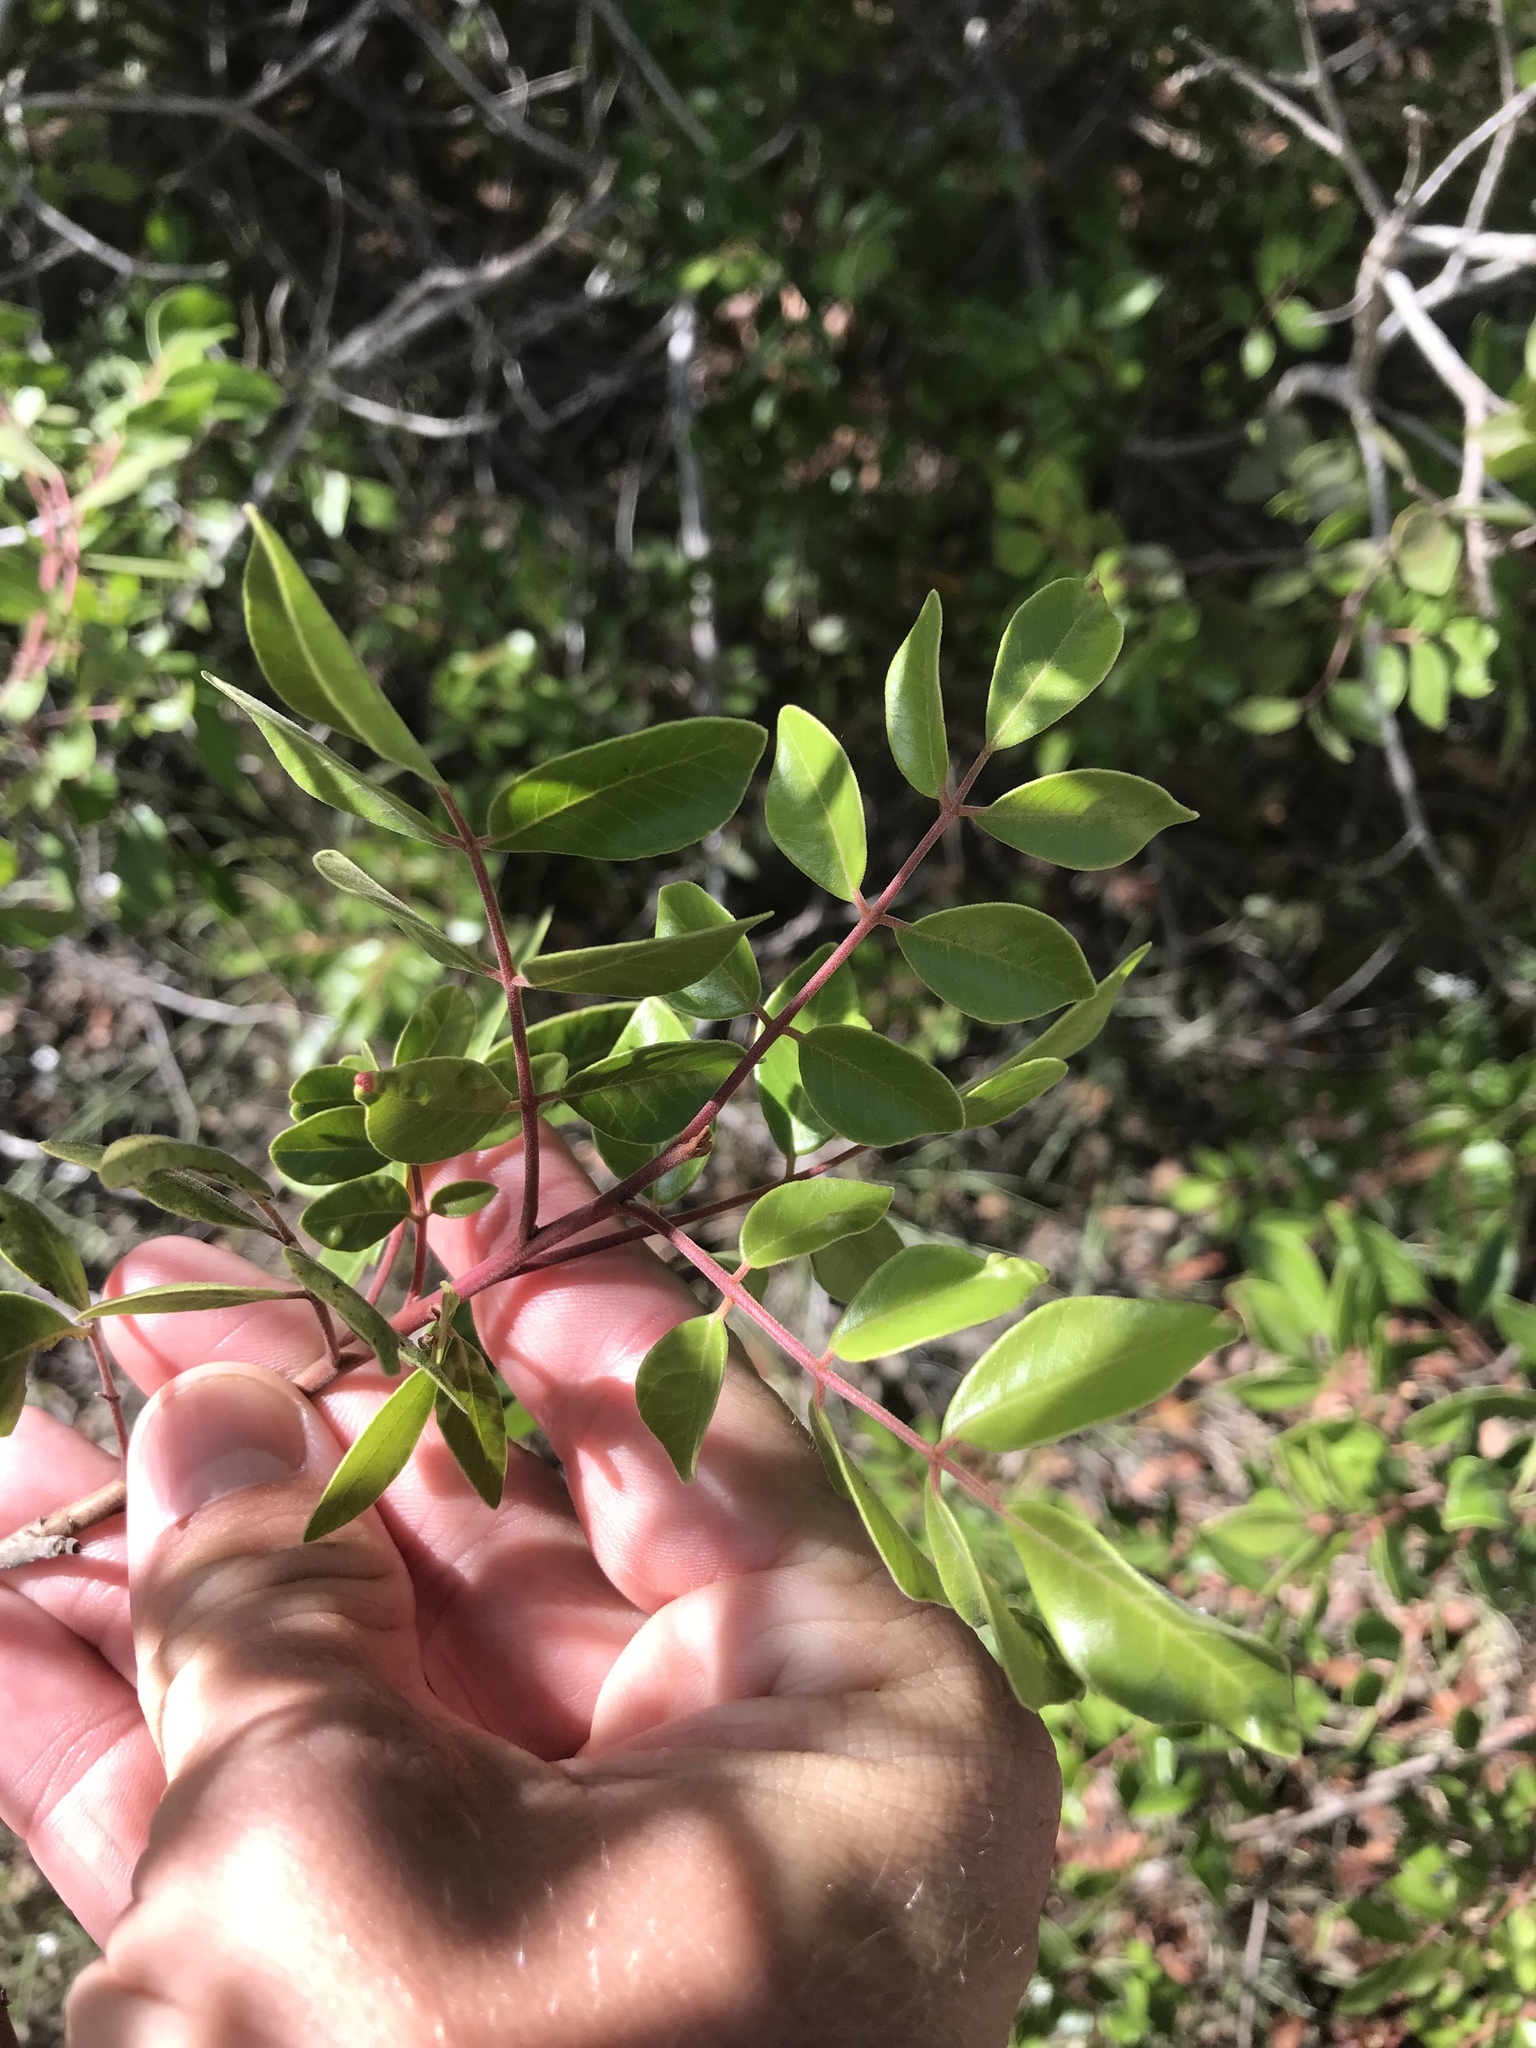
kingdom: Plantae
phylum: Tracheophyta
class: Magnoliopsida
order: Sapindales
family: Anacardiaceae
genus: Rhus
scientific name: Rhus virens
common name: Evergreen sumac
